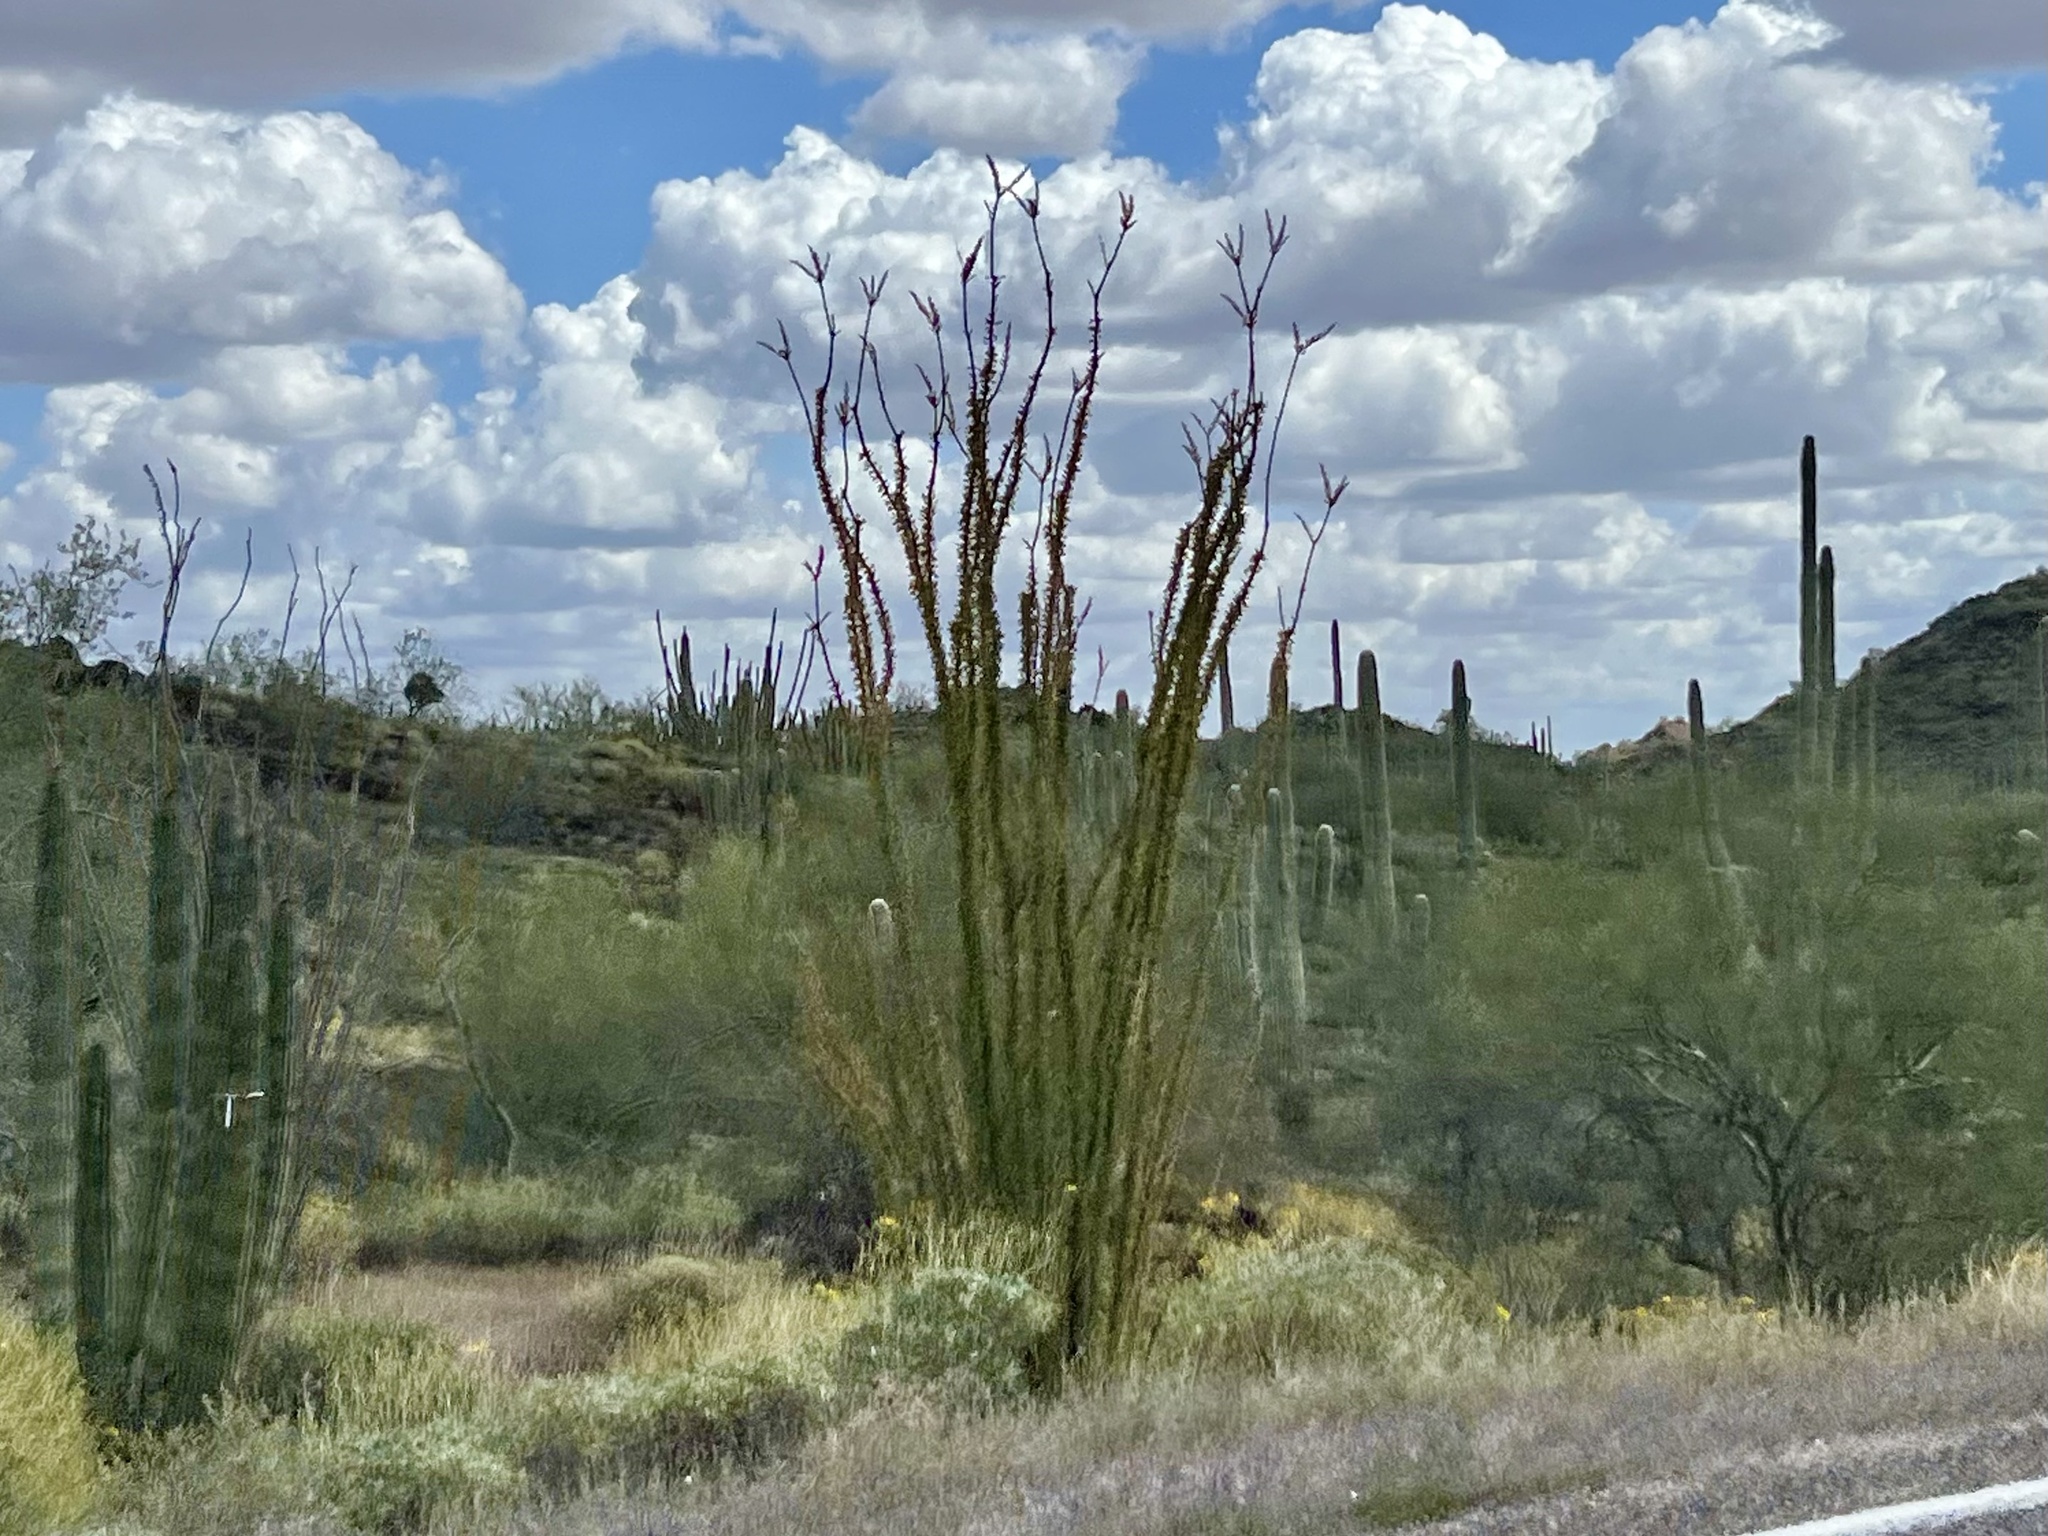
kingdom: Plantae
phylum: Tracheophyta
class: Magnoliopsida
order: Ericales
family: Fouquieriaceae
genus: Fouquieria
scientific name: Fouquieria splendens
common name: Vine-cactus
